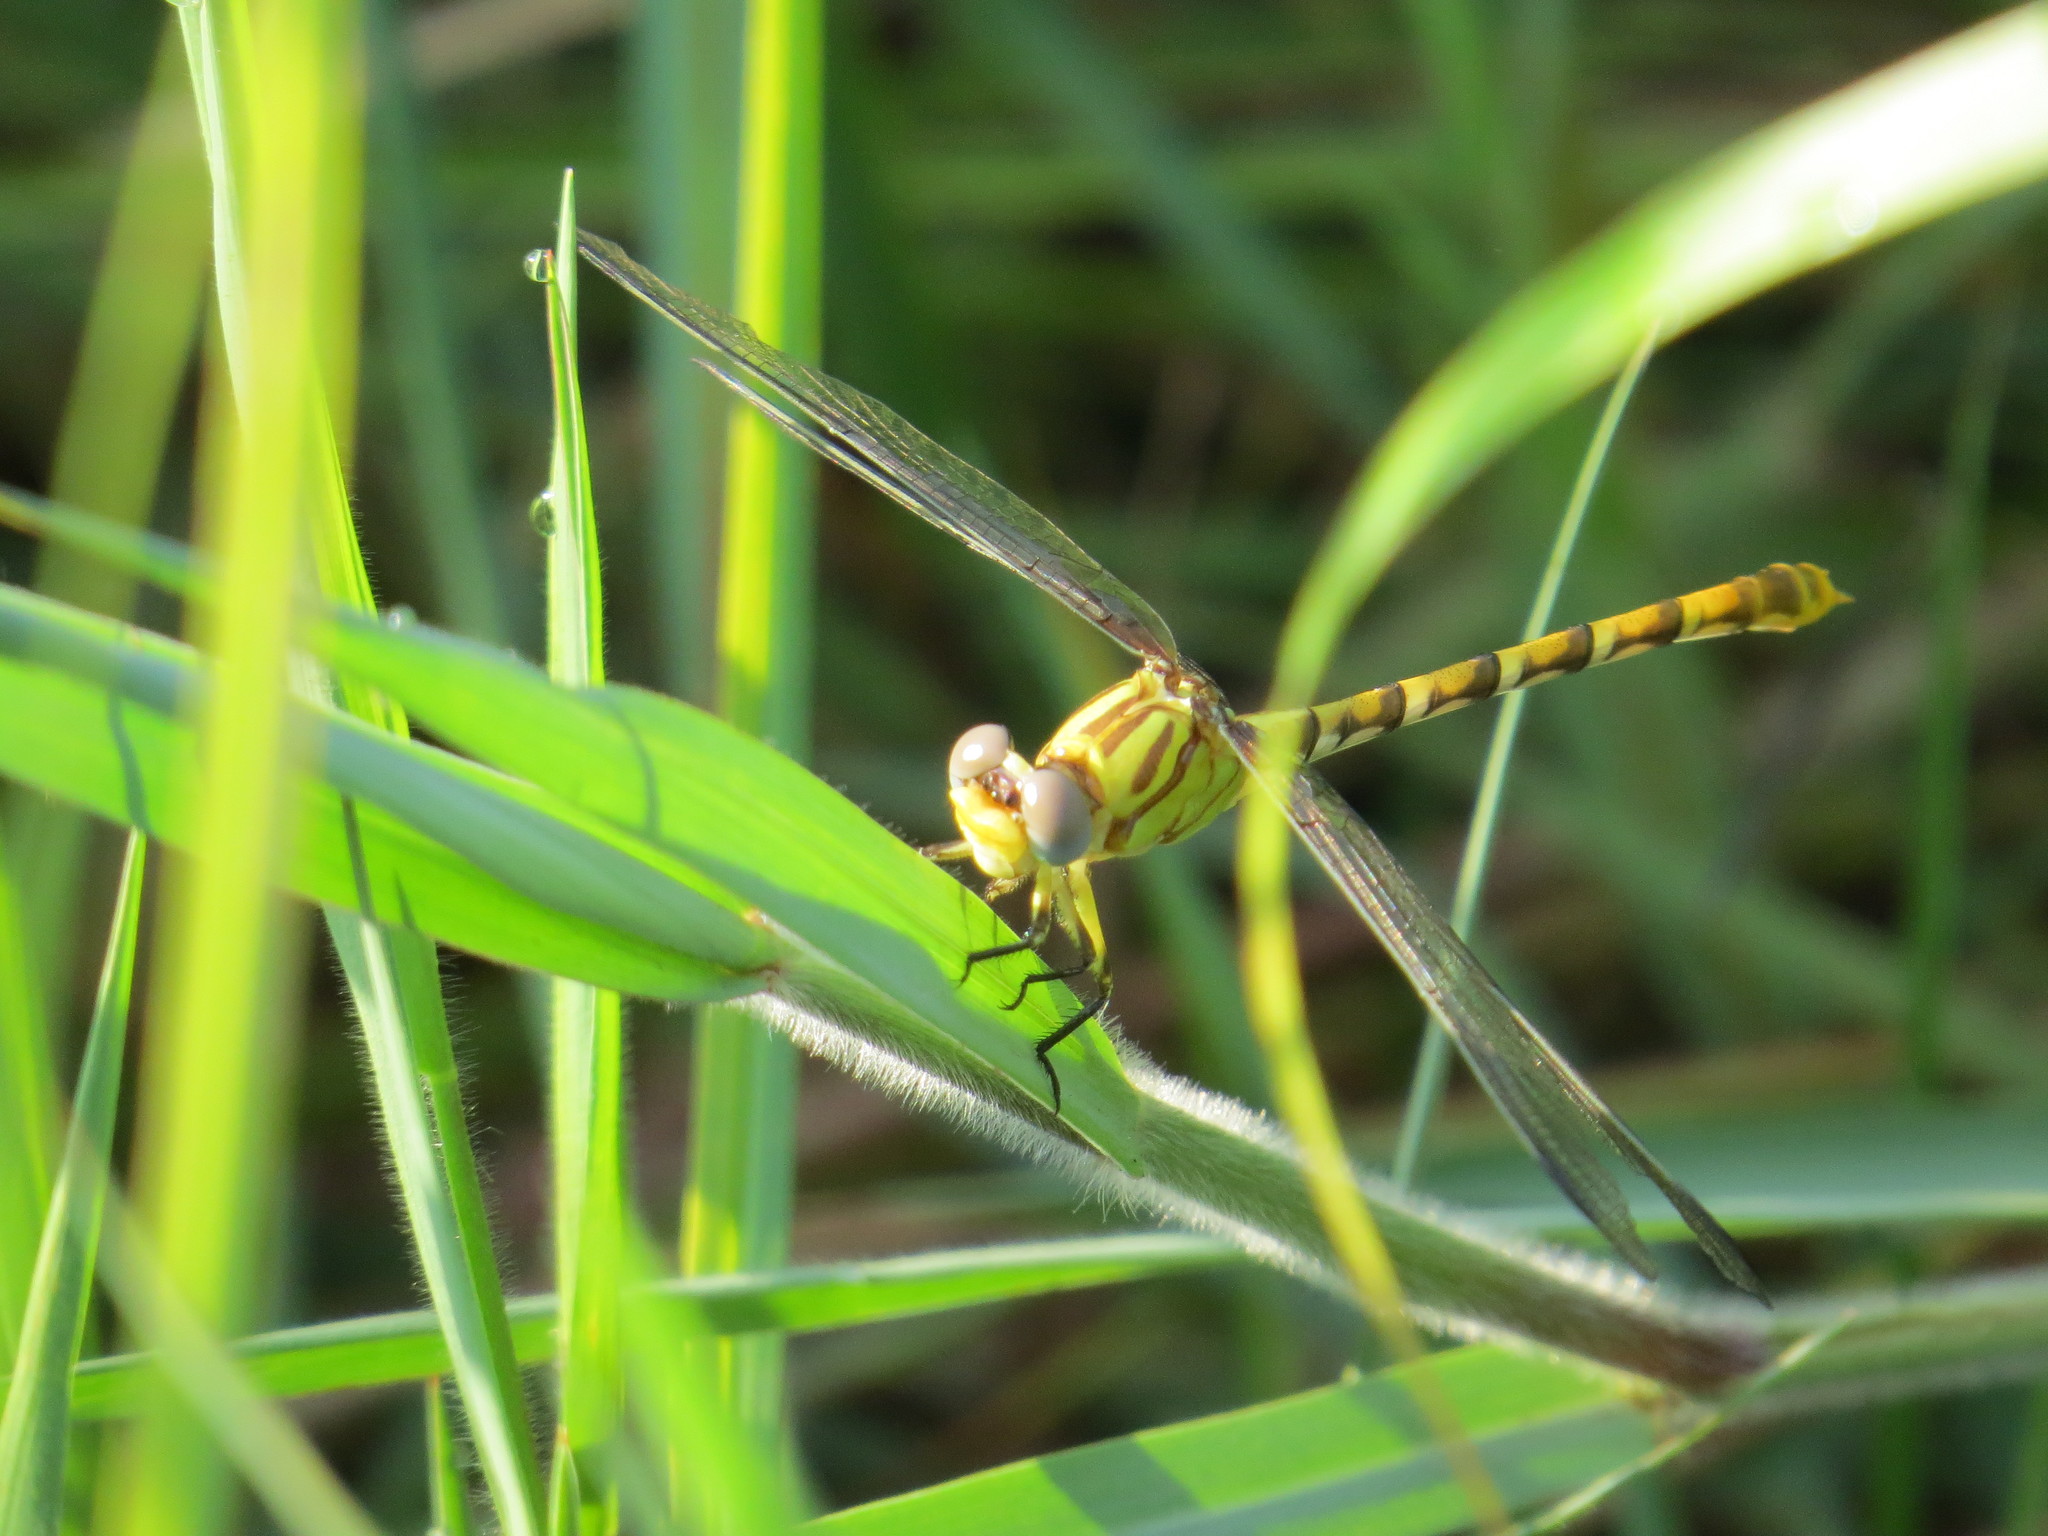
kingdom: Animalia
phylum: Arthropoda
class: Insecta
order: Odonata
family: Gomphidae
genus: Erpetogomphus
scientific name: Erpetogomphus designatus
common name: Eastern ringtail
